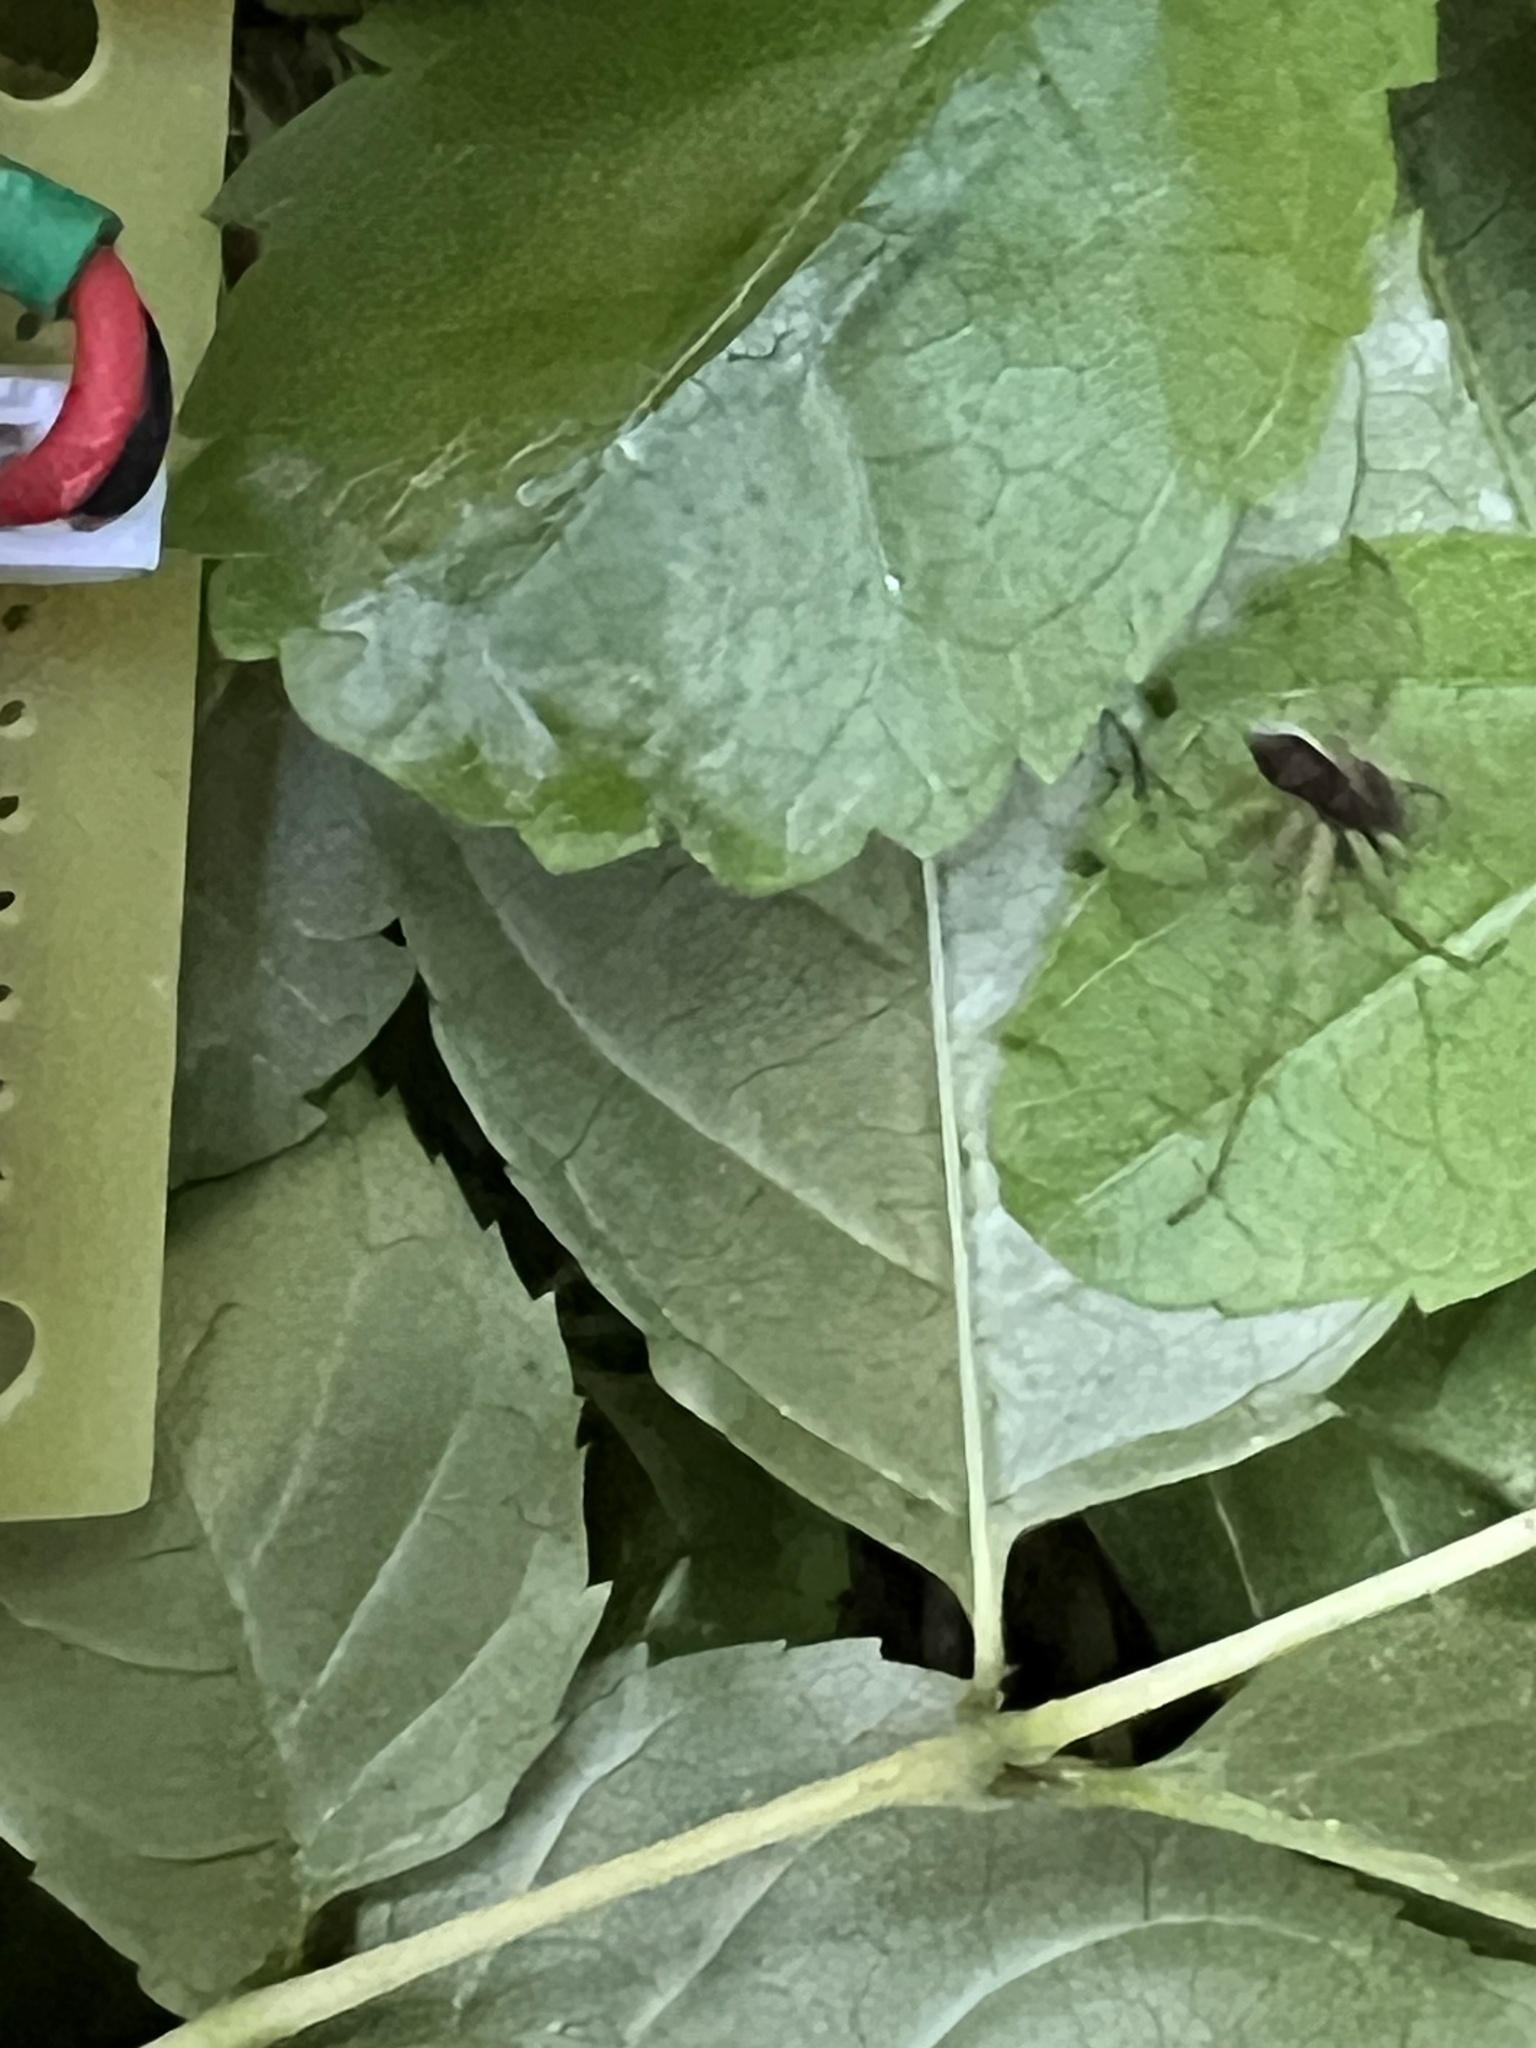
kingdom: Animalia
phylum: Arthropoda
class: Arachnida
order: Araneae
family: Philodromidae
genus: Philodromus
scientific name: Philodromus dispar
